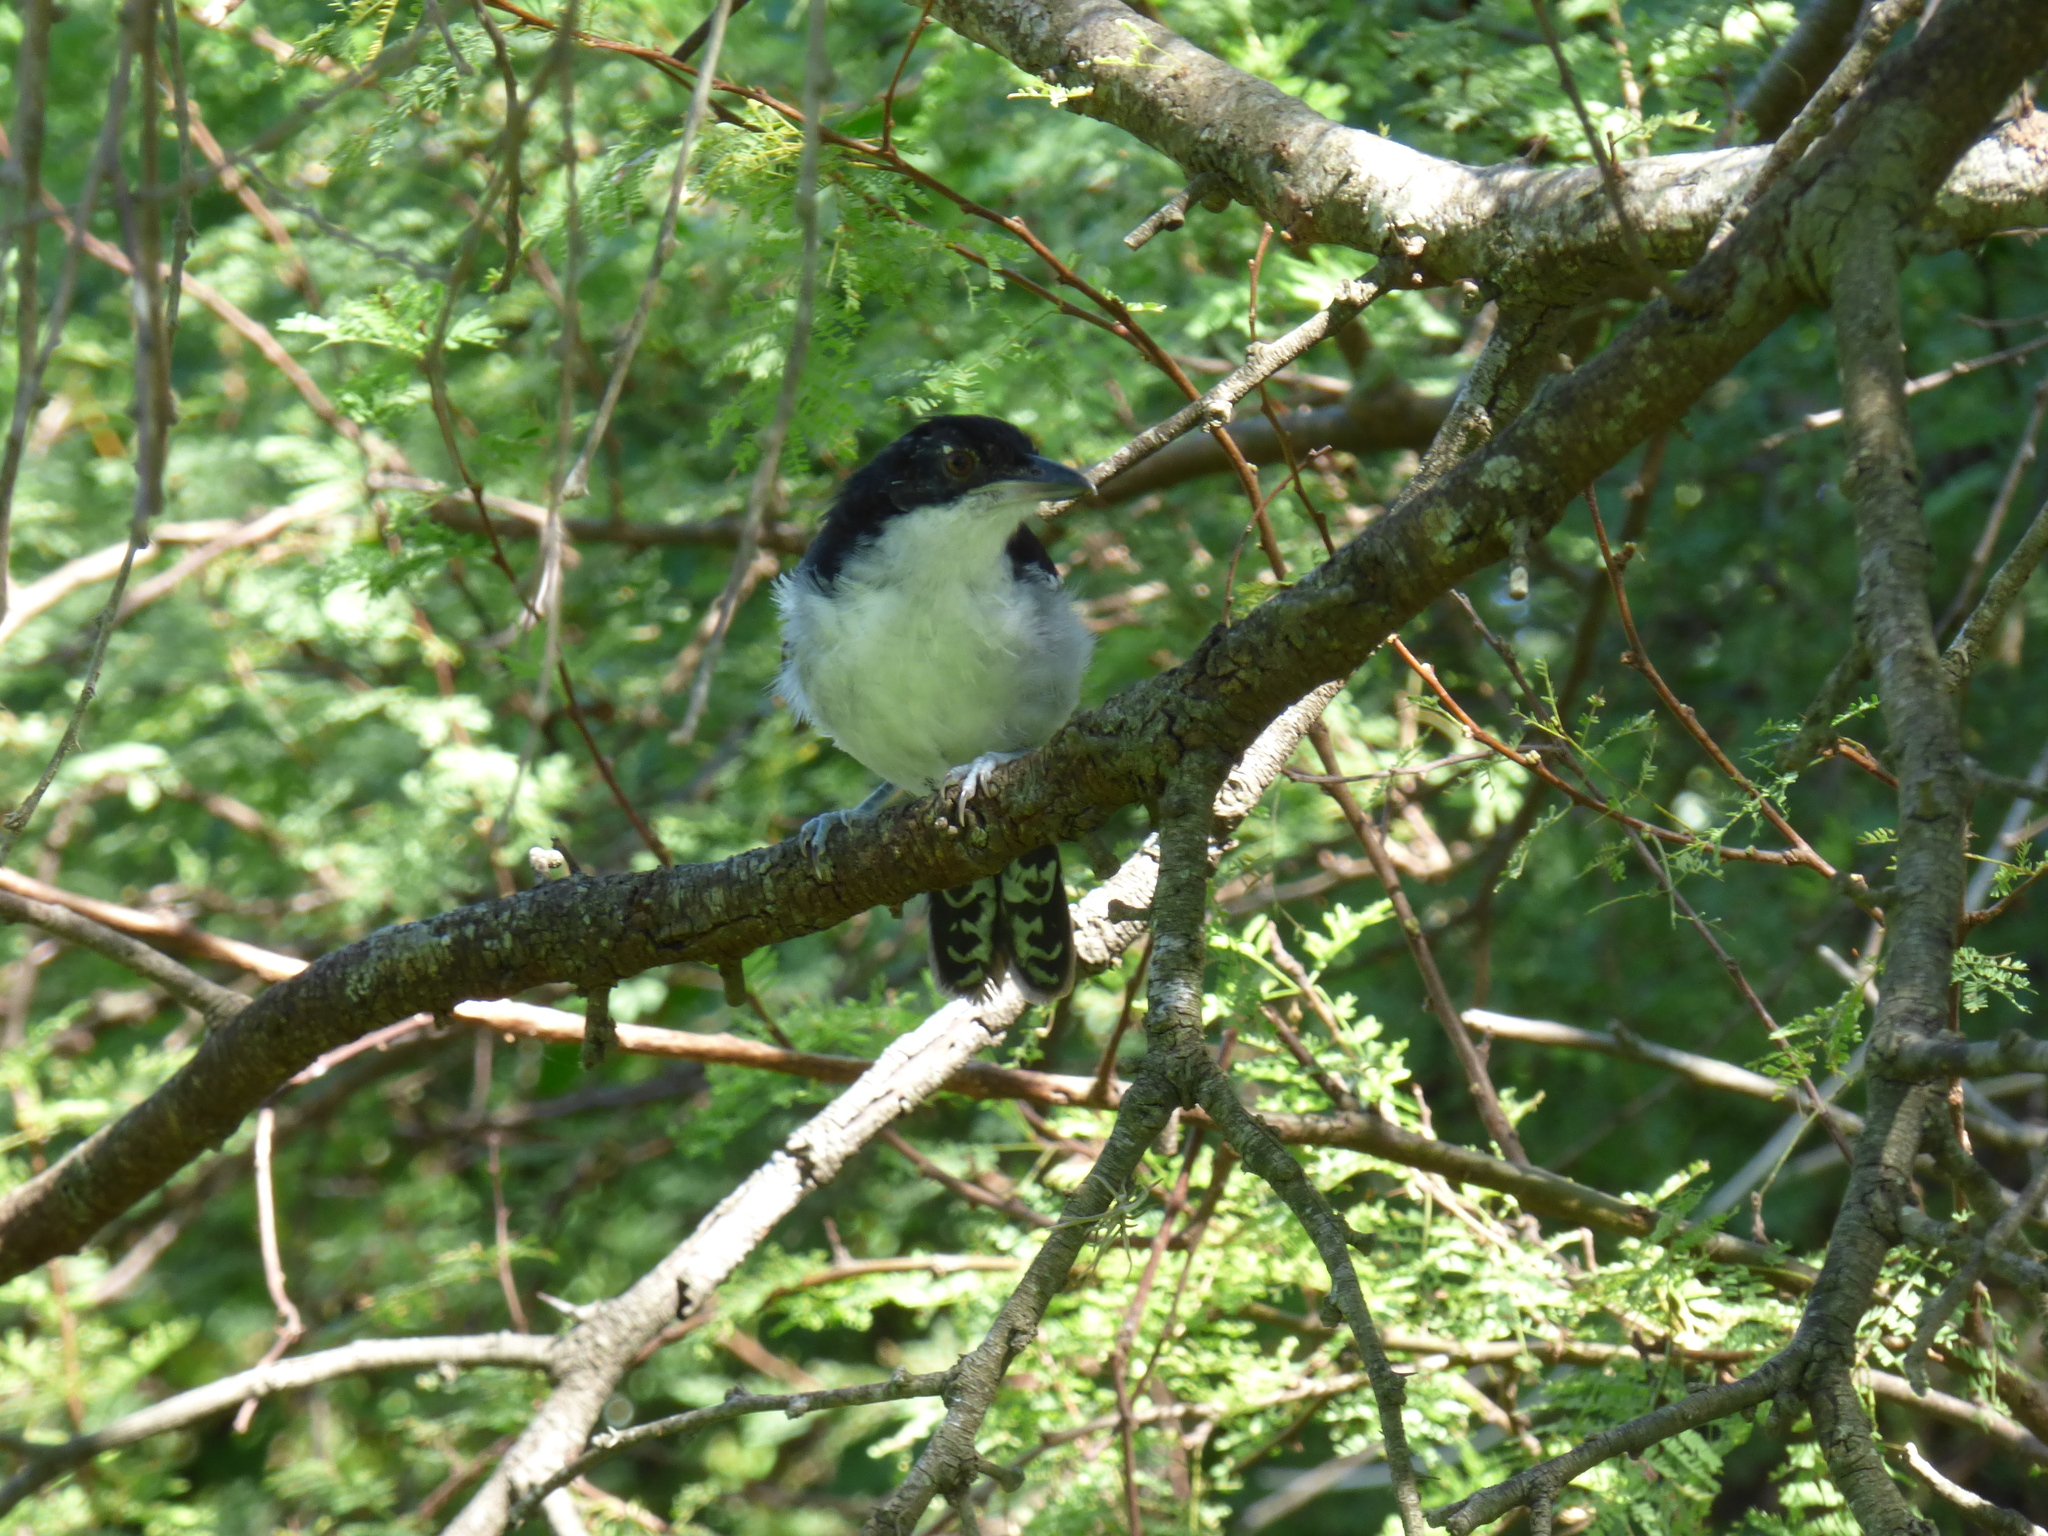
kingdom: Animalia
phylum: Chordata
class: Aves
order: Passeriformes
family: Thamnophilidae
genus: Taraba
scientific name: Taraba major
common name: Great antshrike
